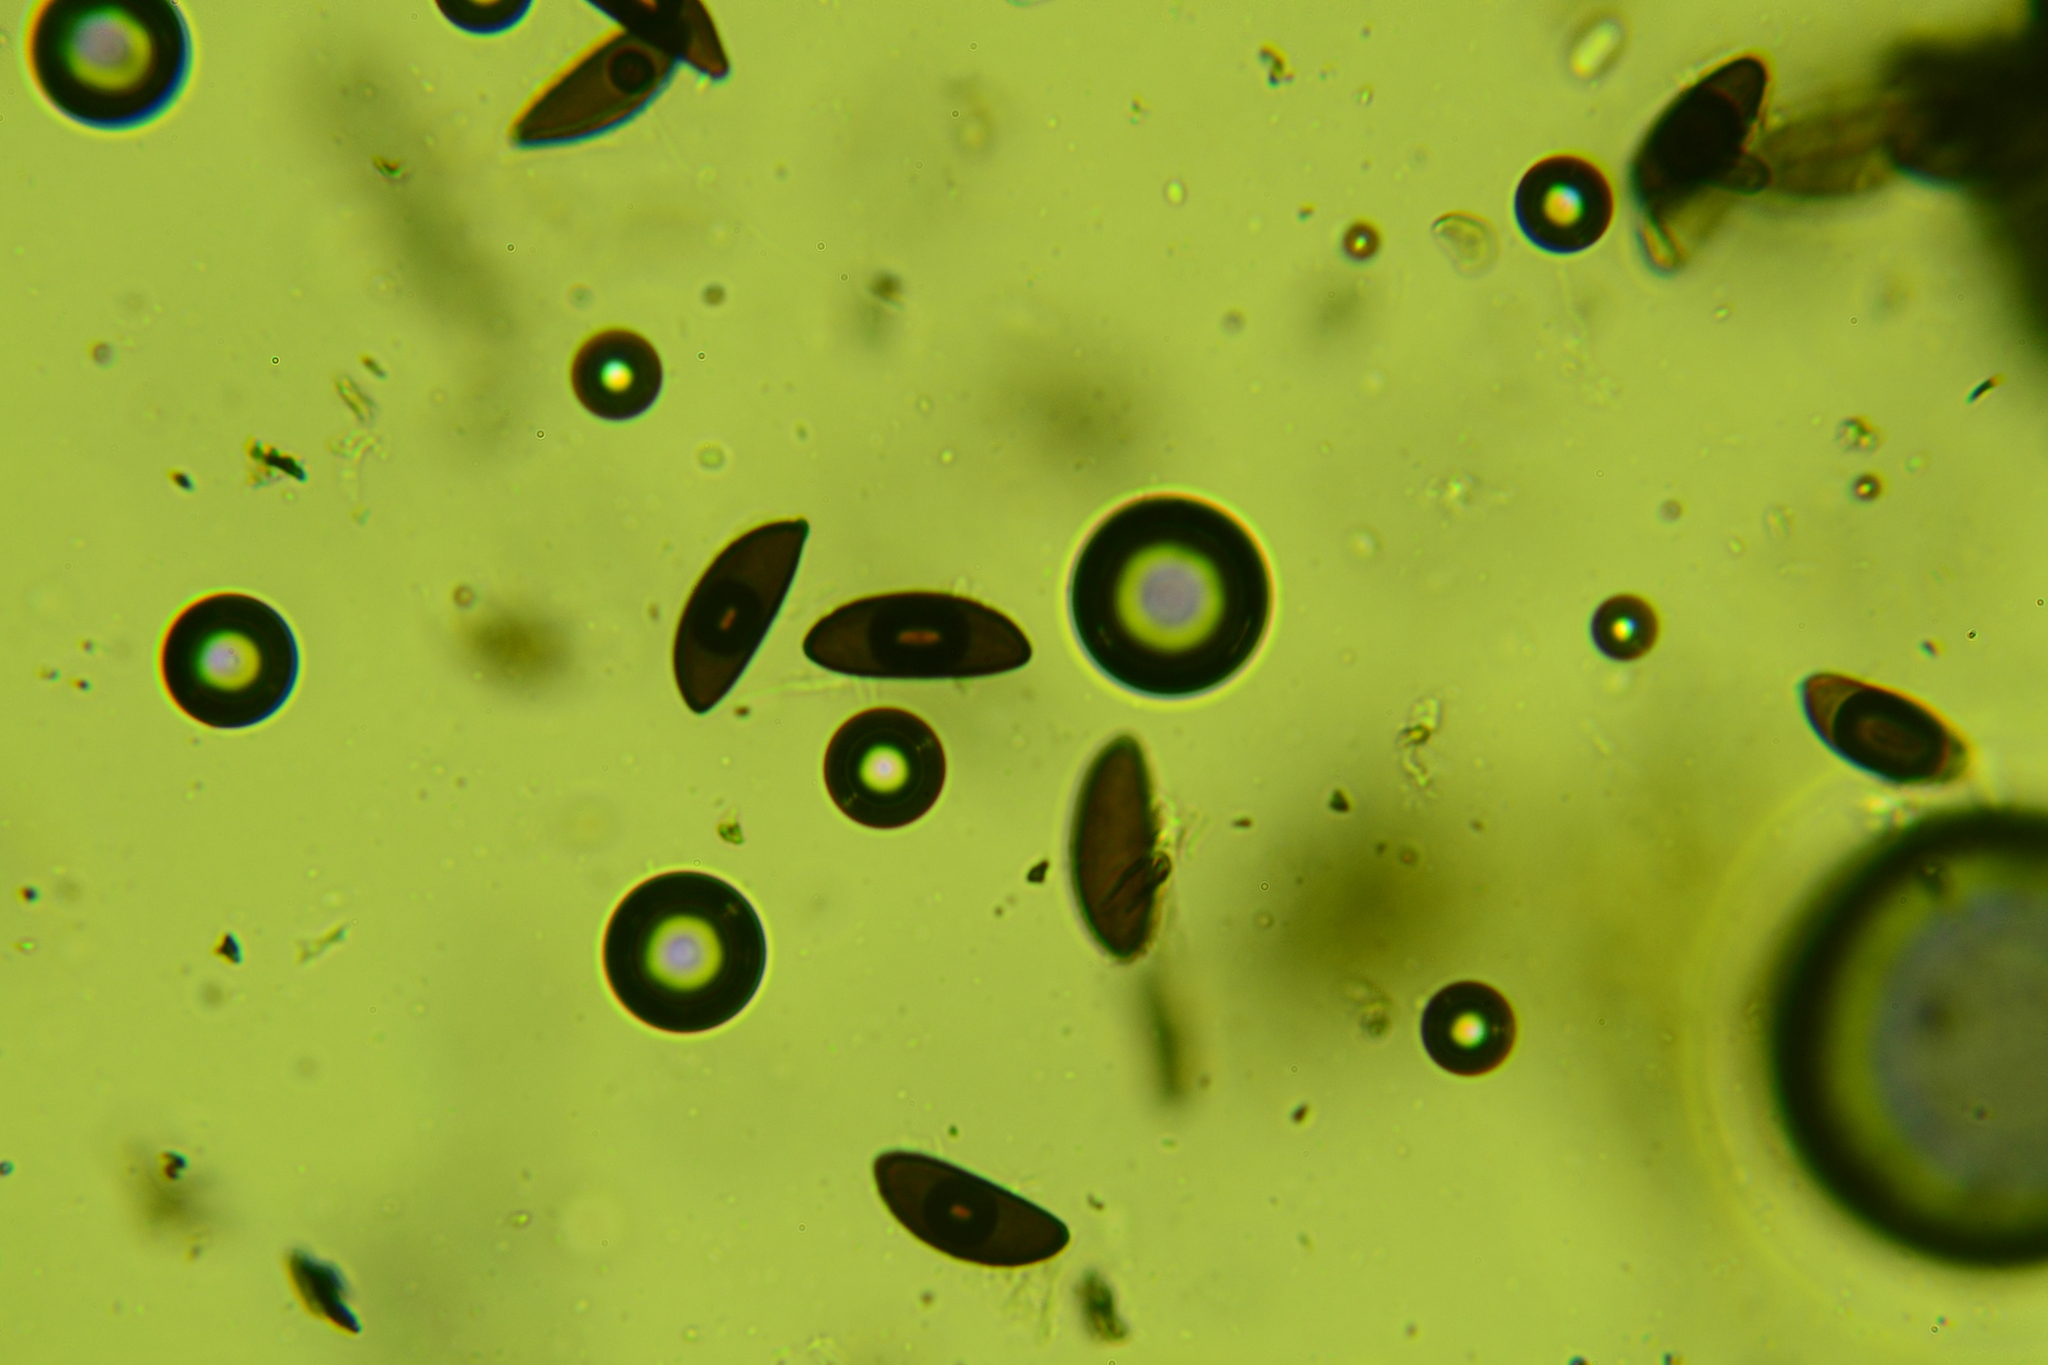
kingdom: Fungi
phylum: Ascomycota
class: Sordariomycetes
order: Xylariales
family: Xylariaceae
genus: Rosellinia
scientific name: Rosellinia corticium
